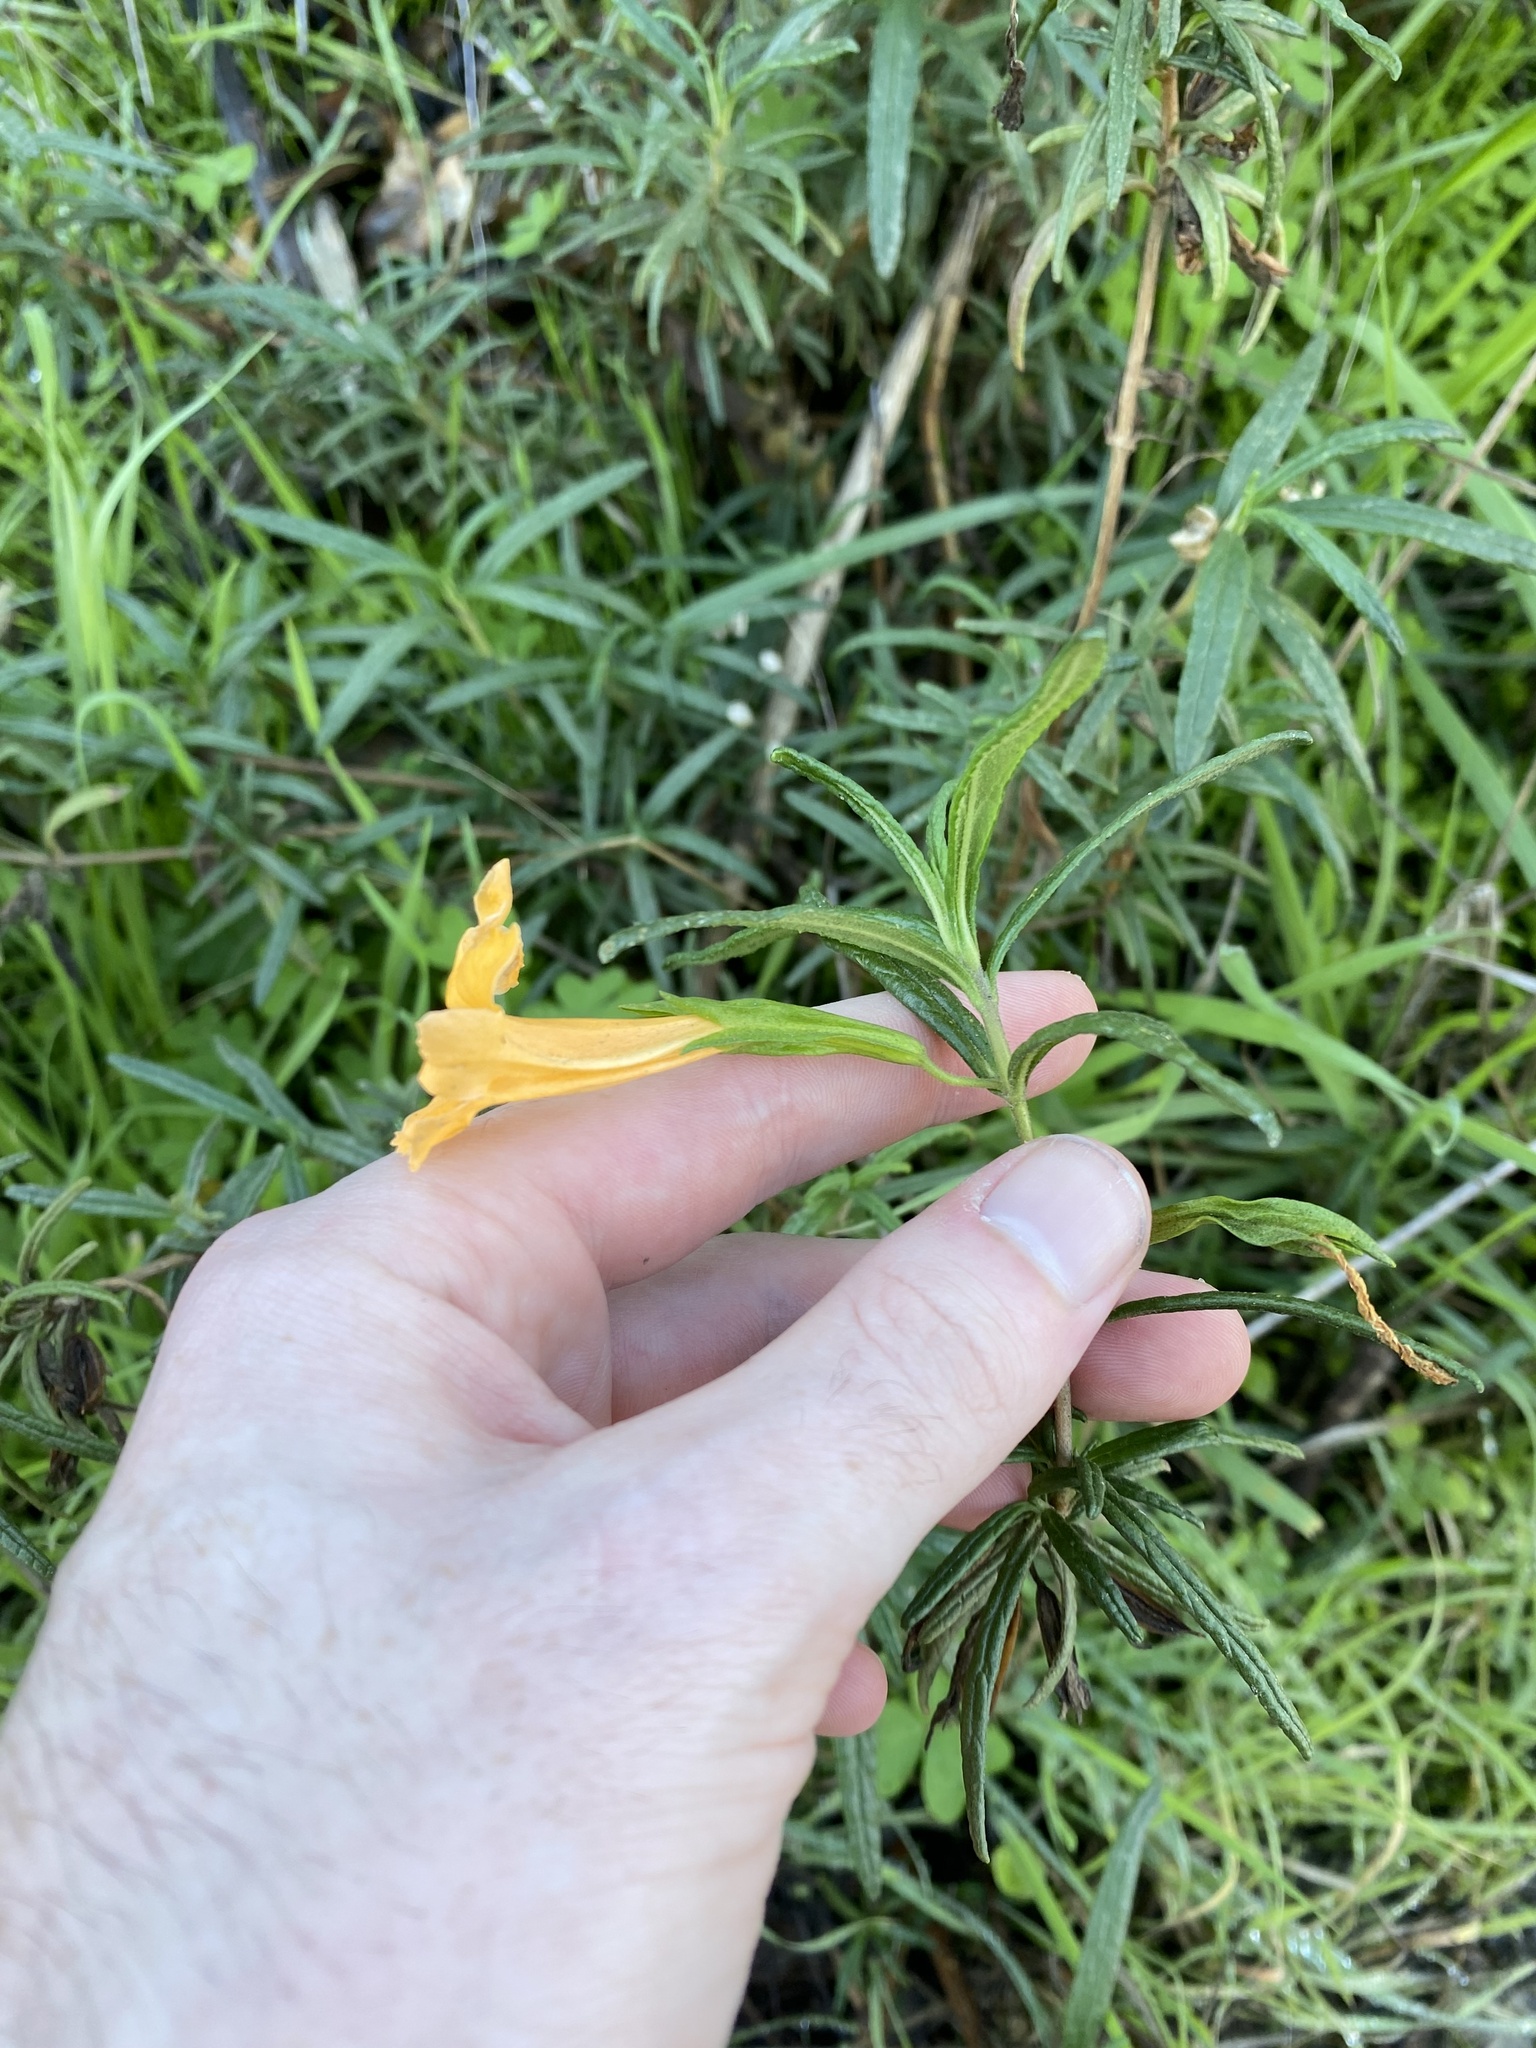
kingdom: Plantae
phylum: Tracheophyta
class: Magnoliopsida
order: Lamiales
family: Phrymaceae
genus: Diplacus
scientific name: Diplacus aurantiacus
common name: Bush monkey-flower
